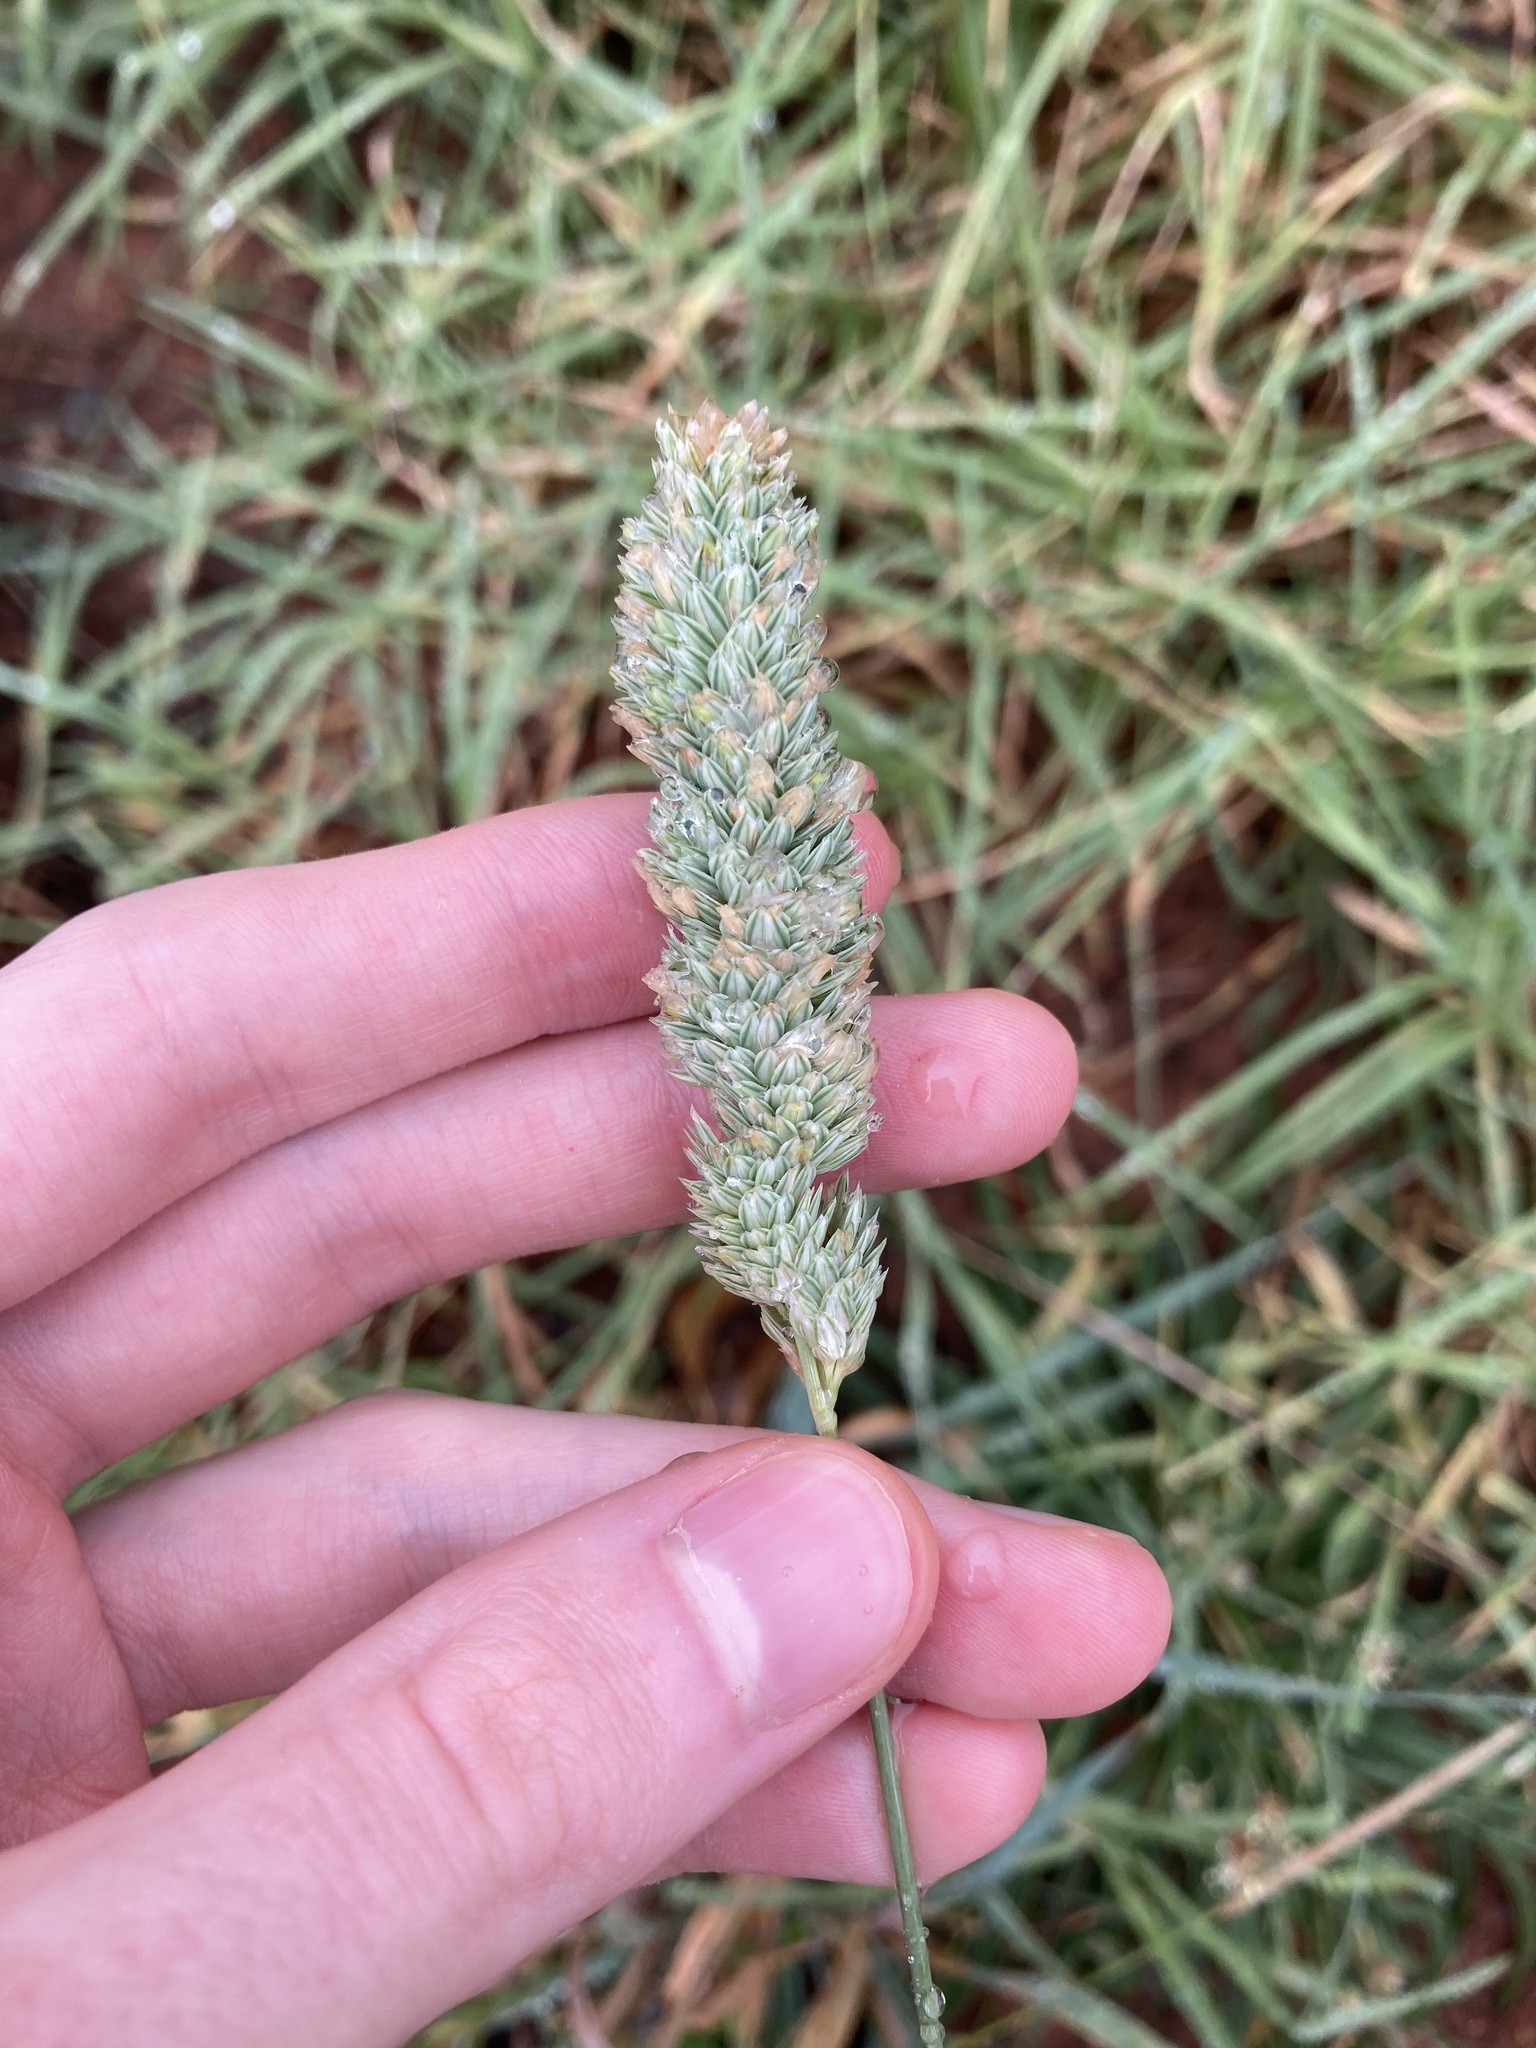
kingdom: Plantae
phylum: Tracheophyta
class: Liliopsida
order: Poales
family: Poaceae
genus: Phalaris
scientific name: Phalaris aquatica
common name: Bulbous canary-grass
